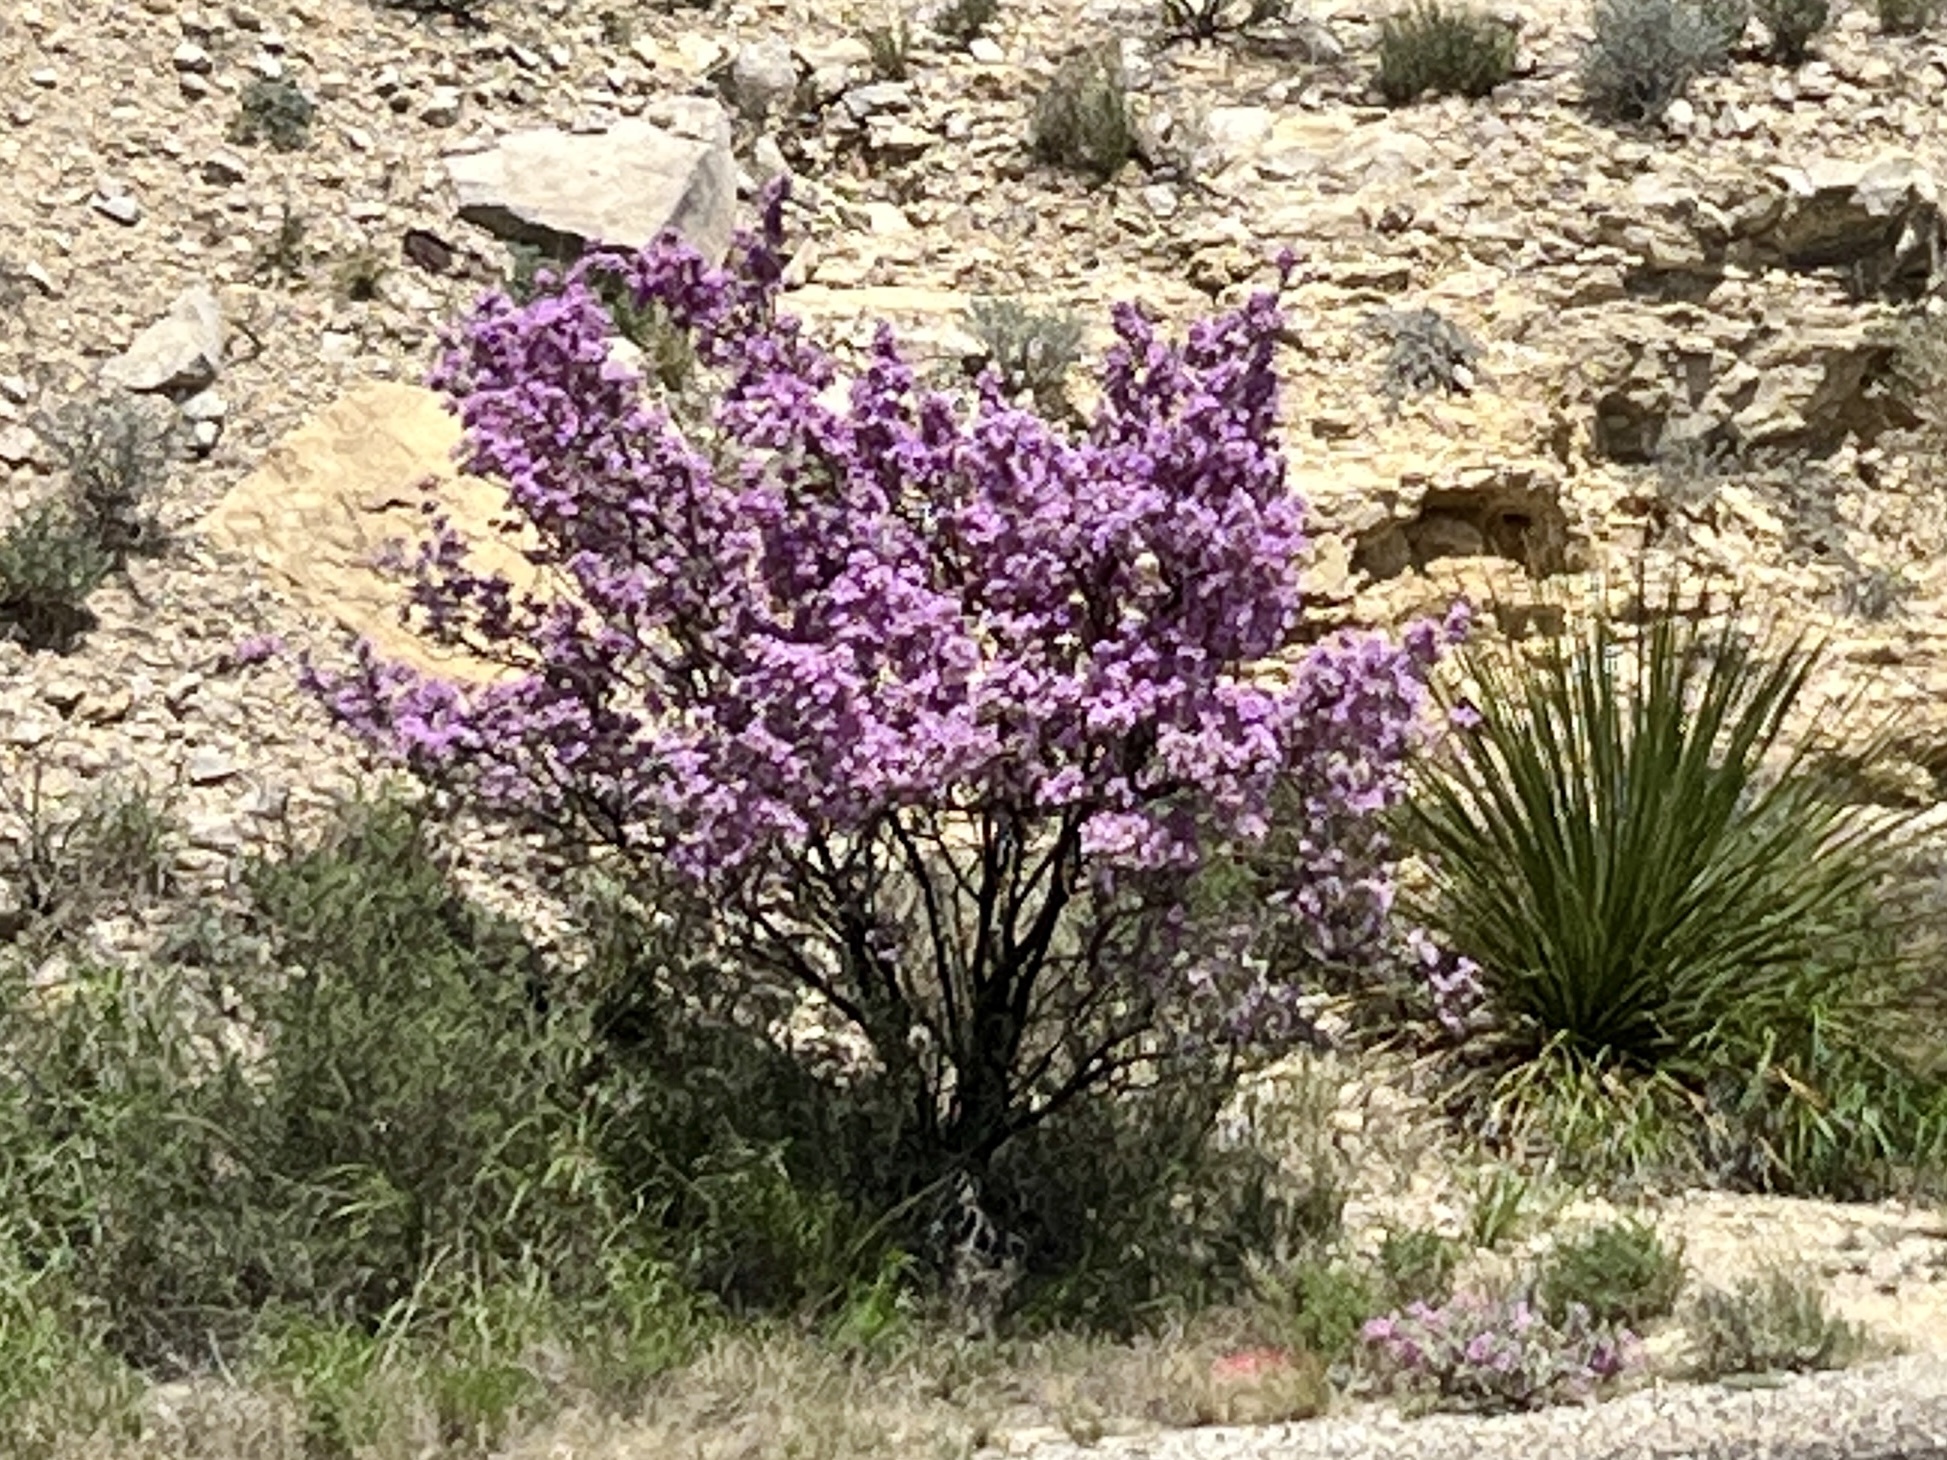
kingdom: Plantae
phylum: Tracheophyta
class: Magnoliopsida
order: Lamiales
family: Scrophulariaceae
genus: Leucophyllum
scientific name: Leucophyllum frutescens
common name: Texas silverleaf
